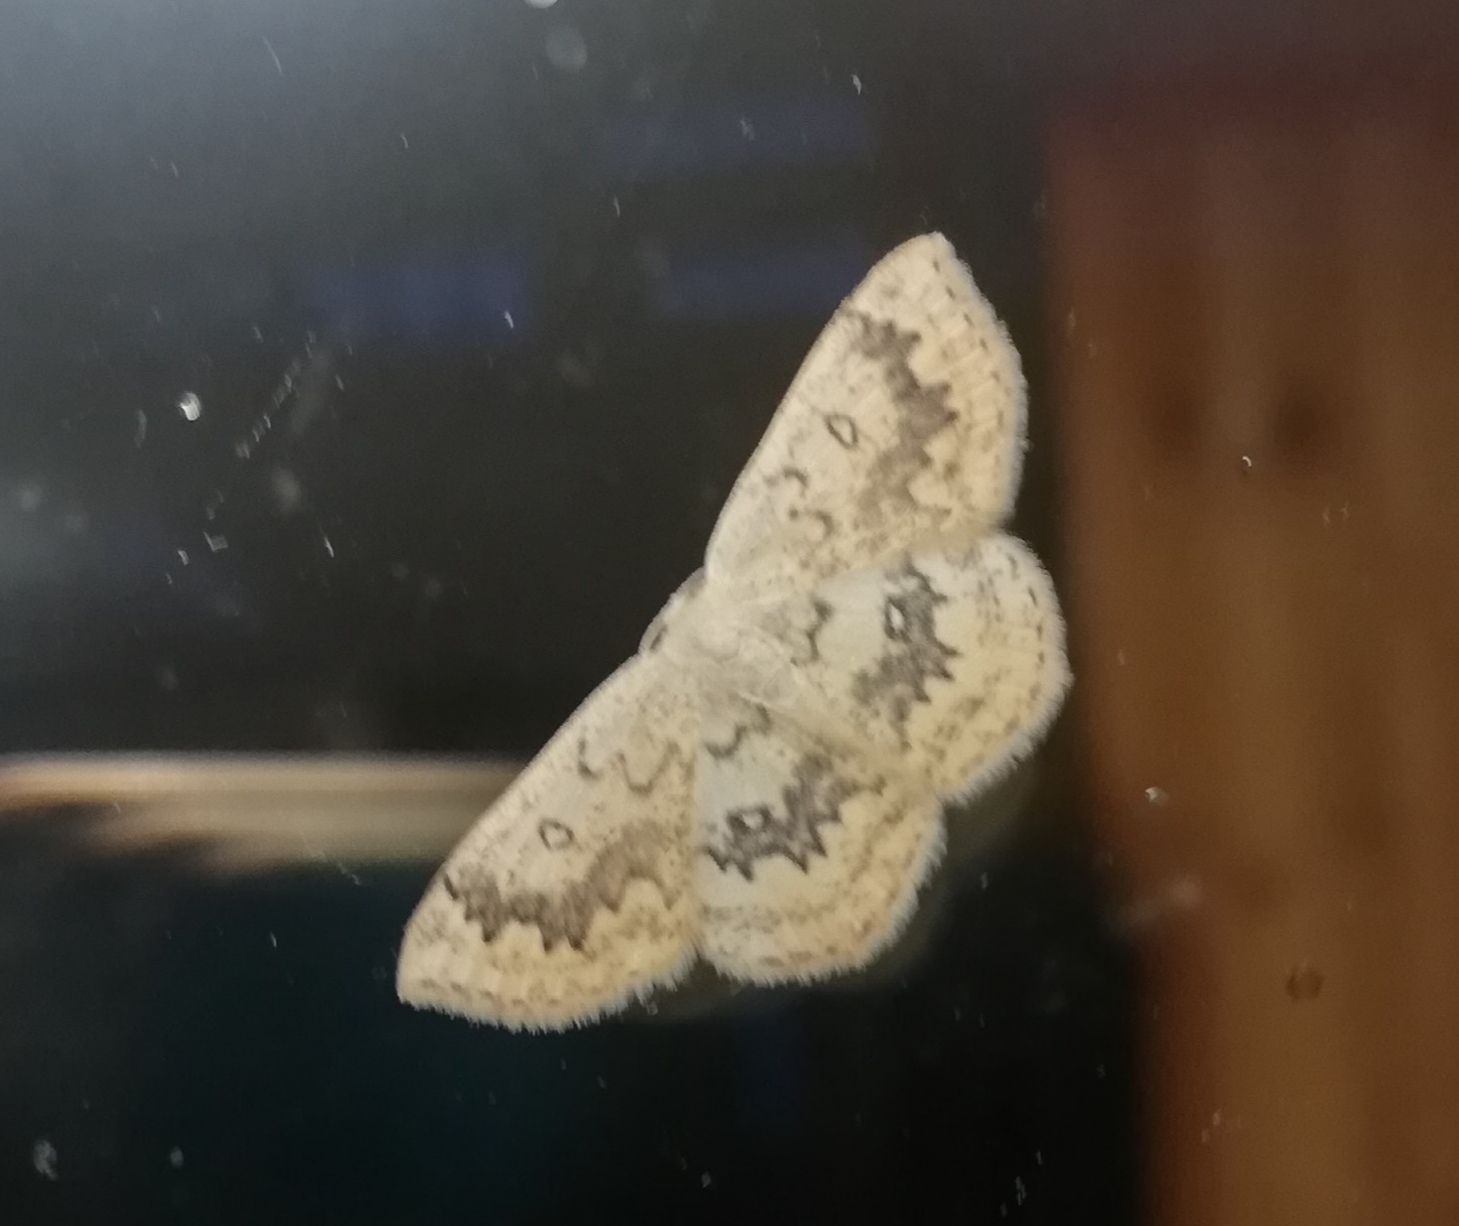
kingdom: Animalia
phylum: Arthropoda
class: Insecta
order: Lepidoptera
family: Geometridae
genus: Cyclophora
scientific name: Cyclophora annularia
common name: Mocha
